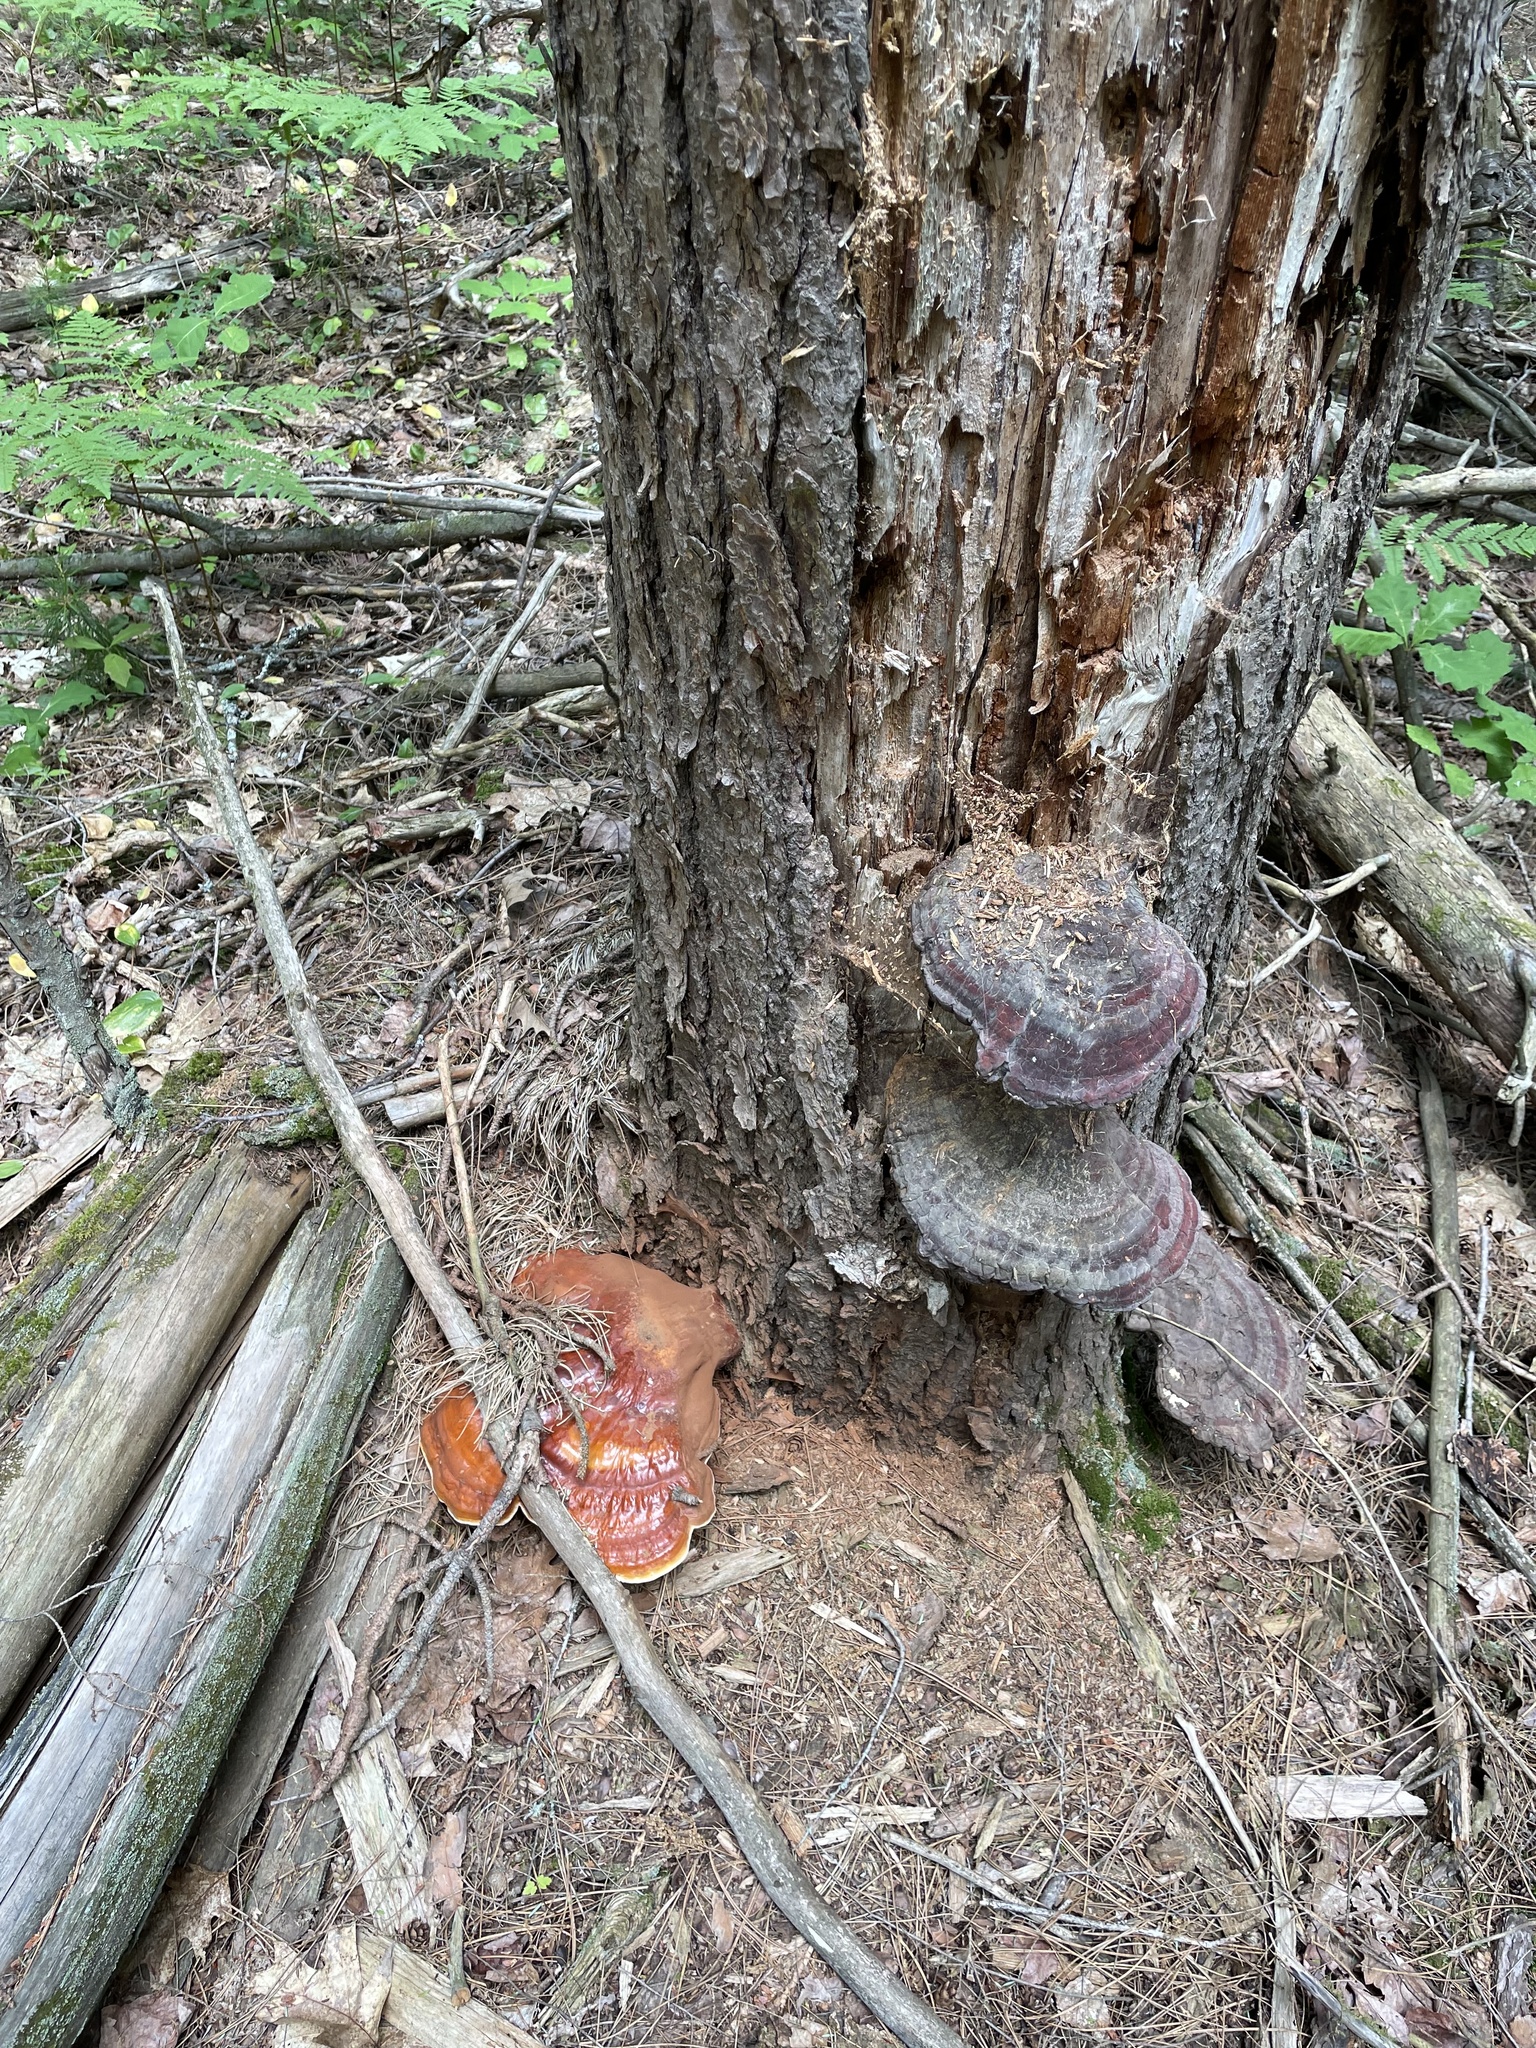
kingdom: Fungi
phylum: Basidiomycota
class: Agaricomycetes
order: Polyporales
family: Polyporaceae
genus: Ganoderma
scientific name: Ganoderma tsugae
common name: Hemlock varnish shelf
